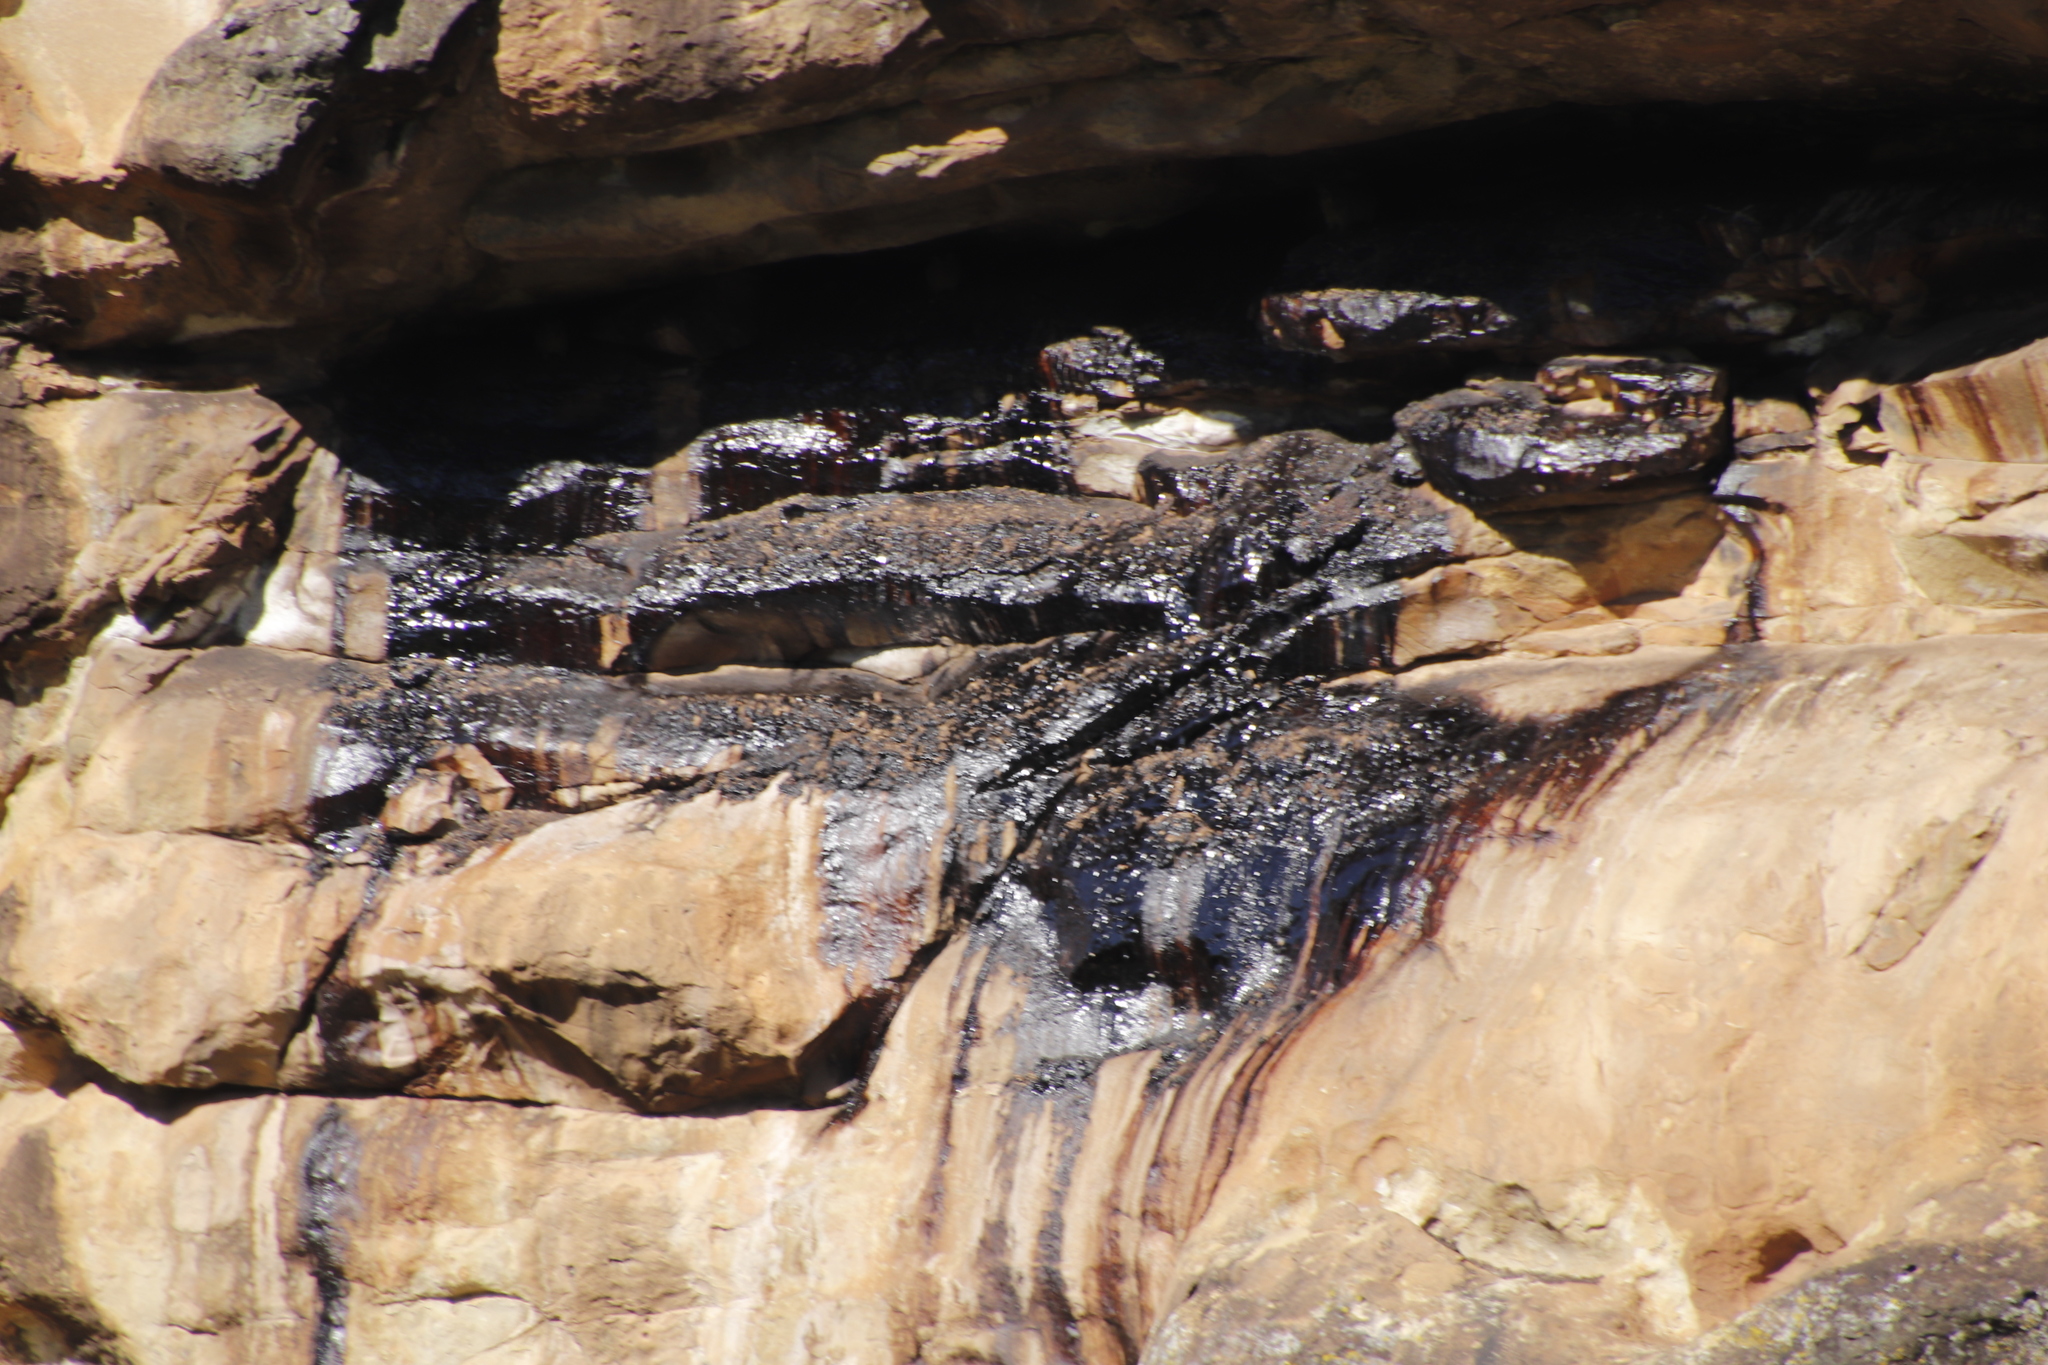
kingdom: Animalia
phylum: Chordata
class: Mammalia
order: Hyracoidea
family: Procaviidae
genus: Procavia
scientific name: Procavia capensis
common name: Rock hyrax
